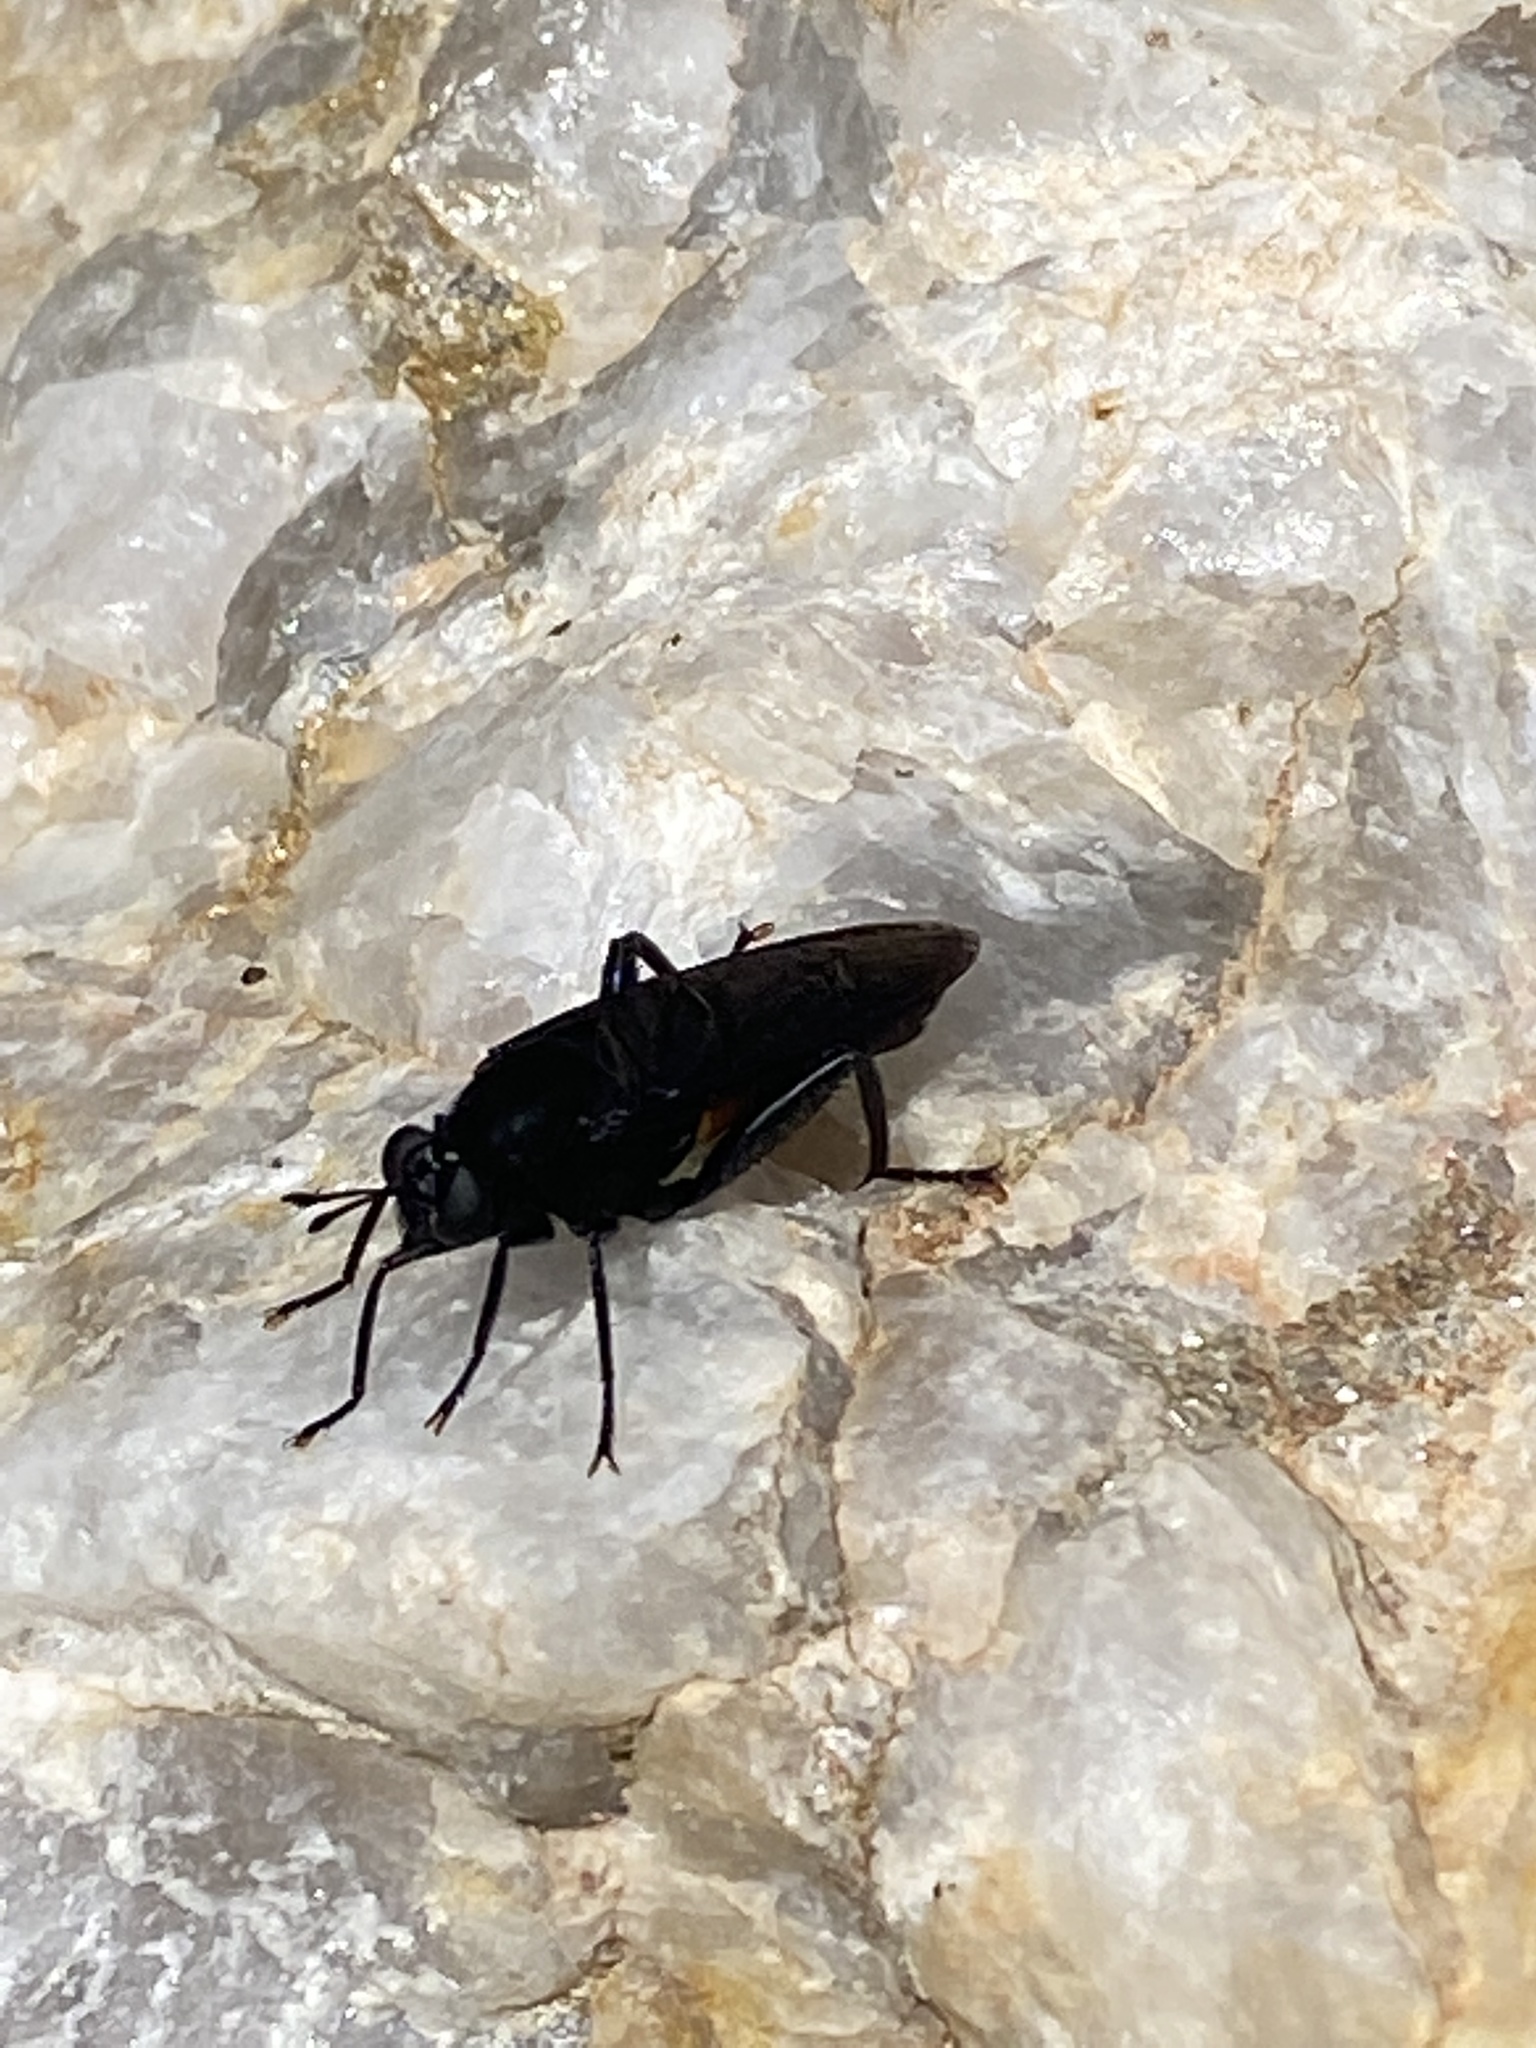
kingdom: Animalia
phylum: Arthropoda
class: Insecta
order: Diptera
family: Mydidae
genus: Mydas
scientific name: Mydas clavatus
